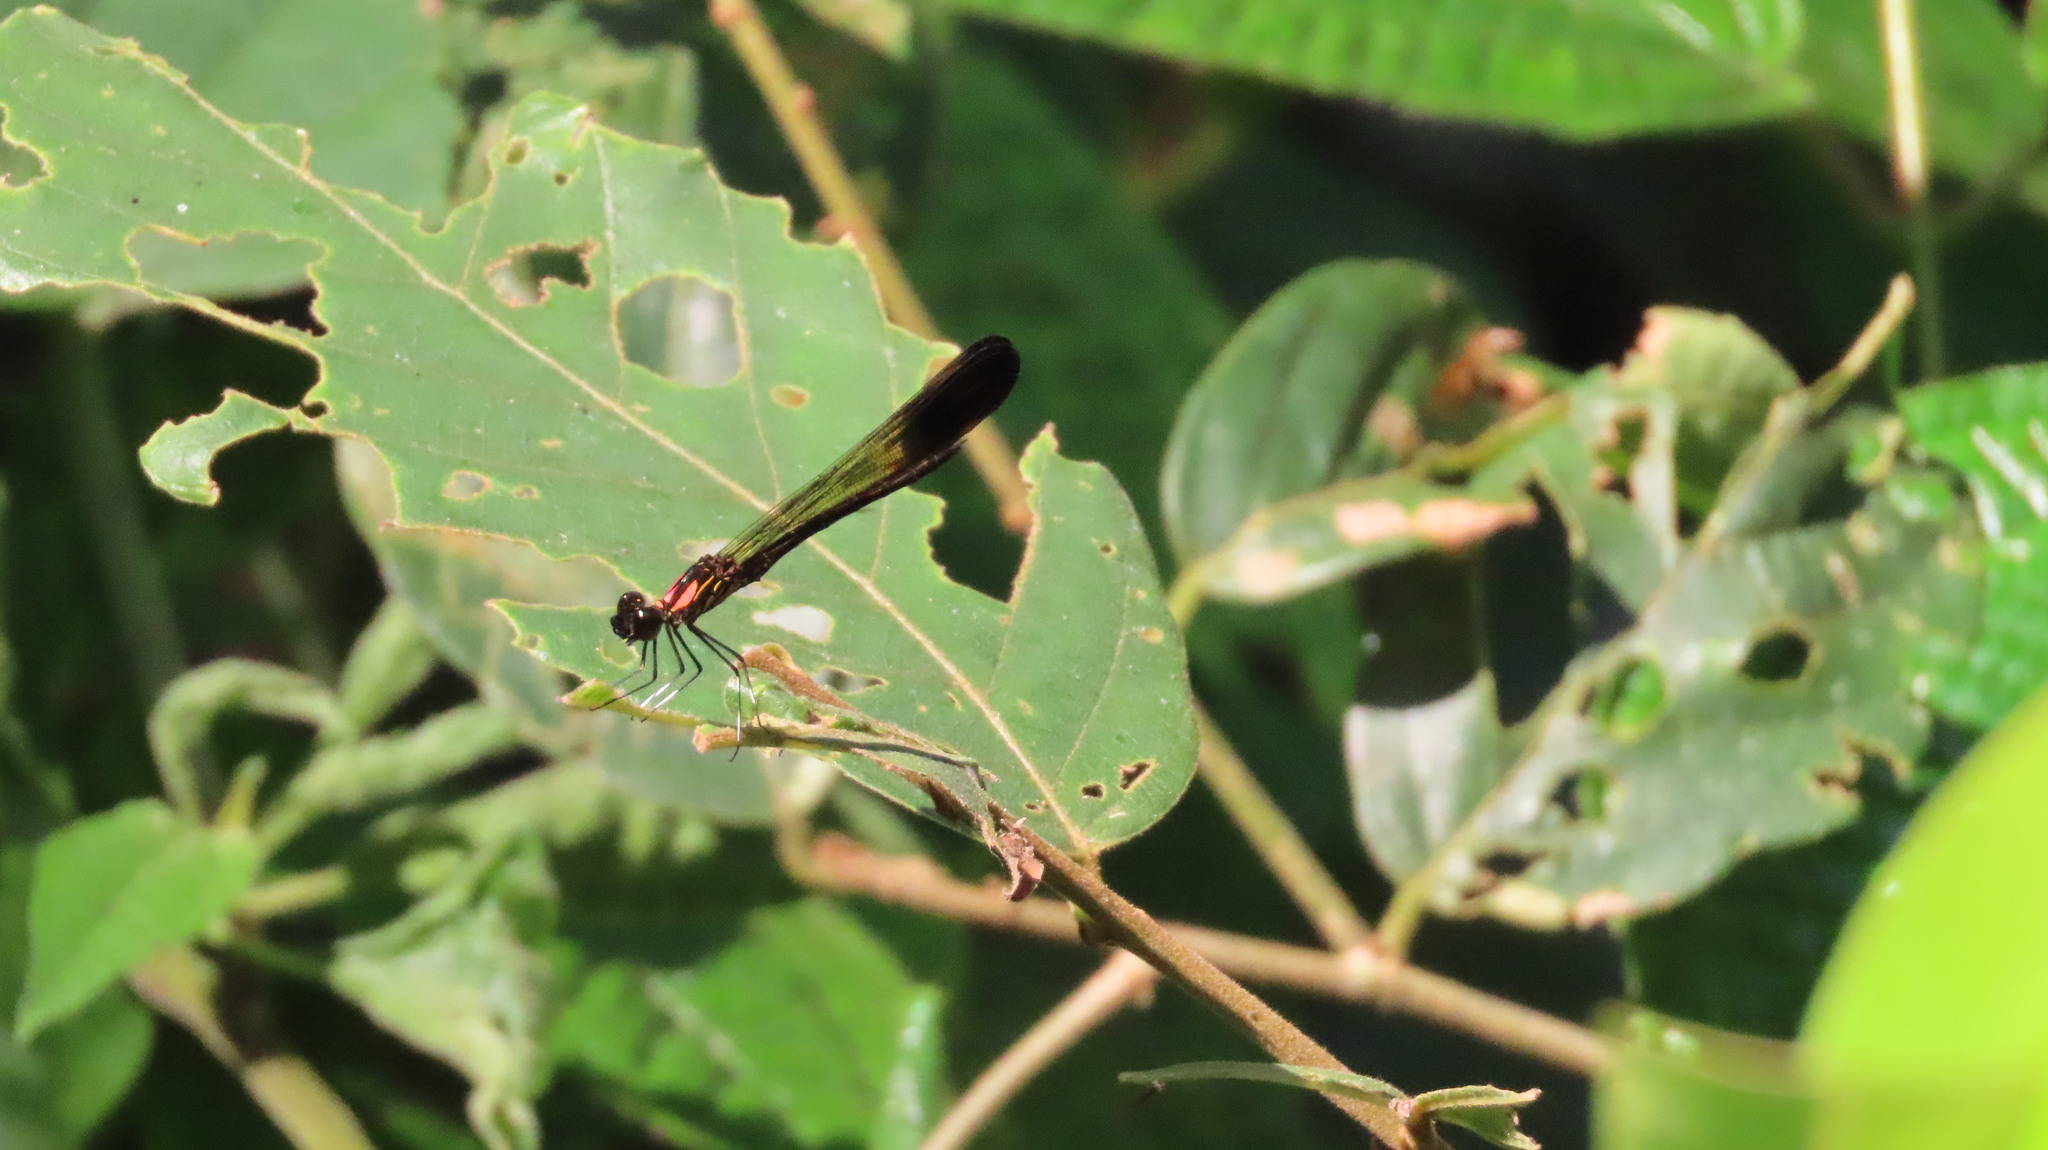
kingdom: Animalia
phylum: Arthropoda
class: Insecta
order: Odonata
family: Chlorocyphidae
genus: Heliocypha
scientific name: Heliocypha bisignata
